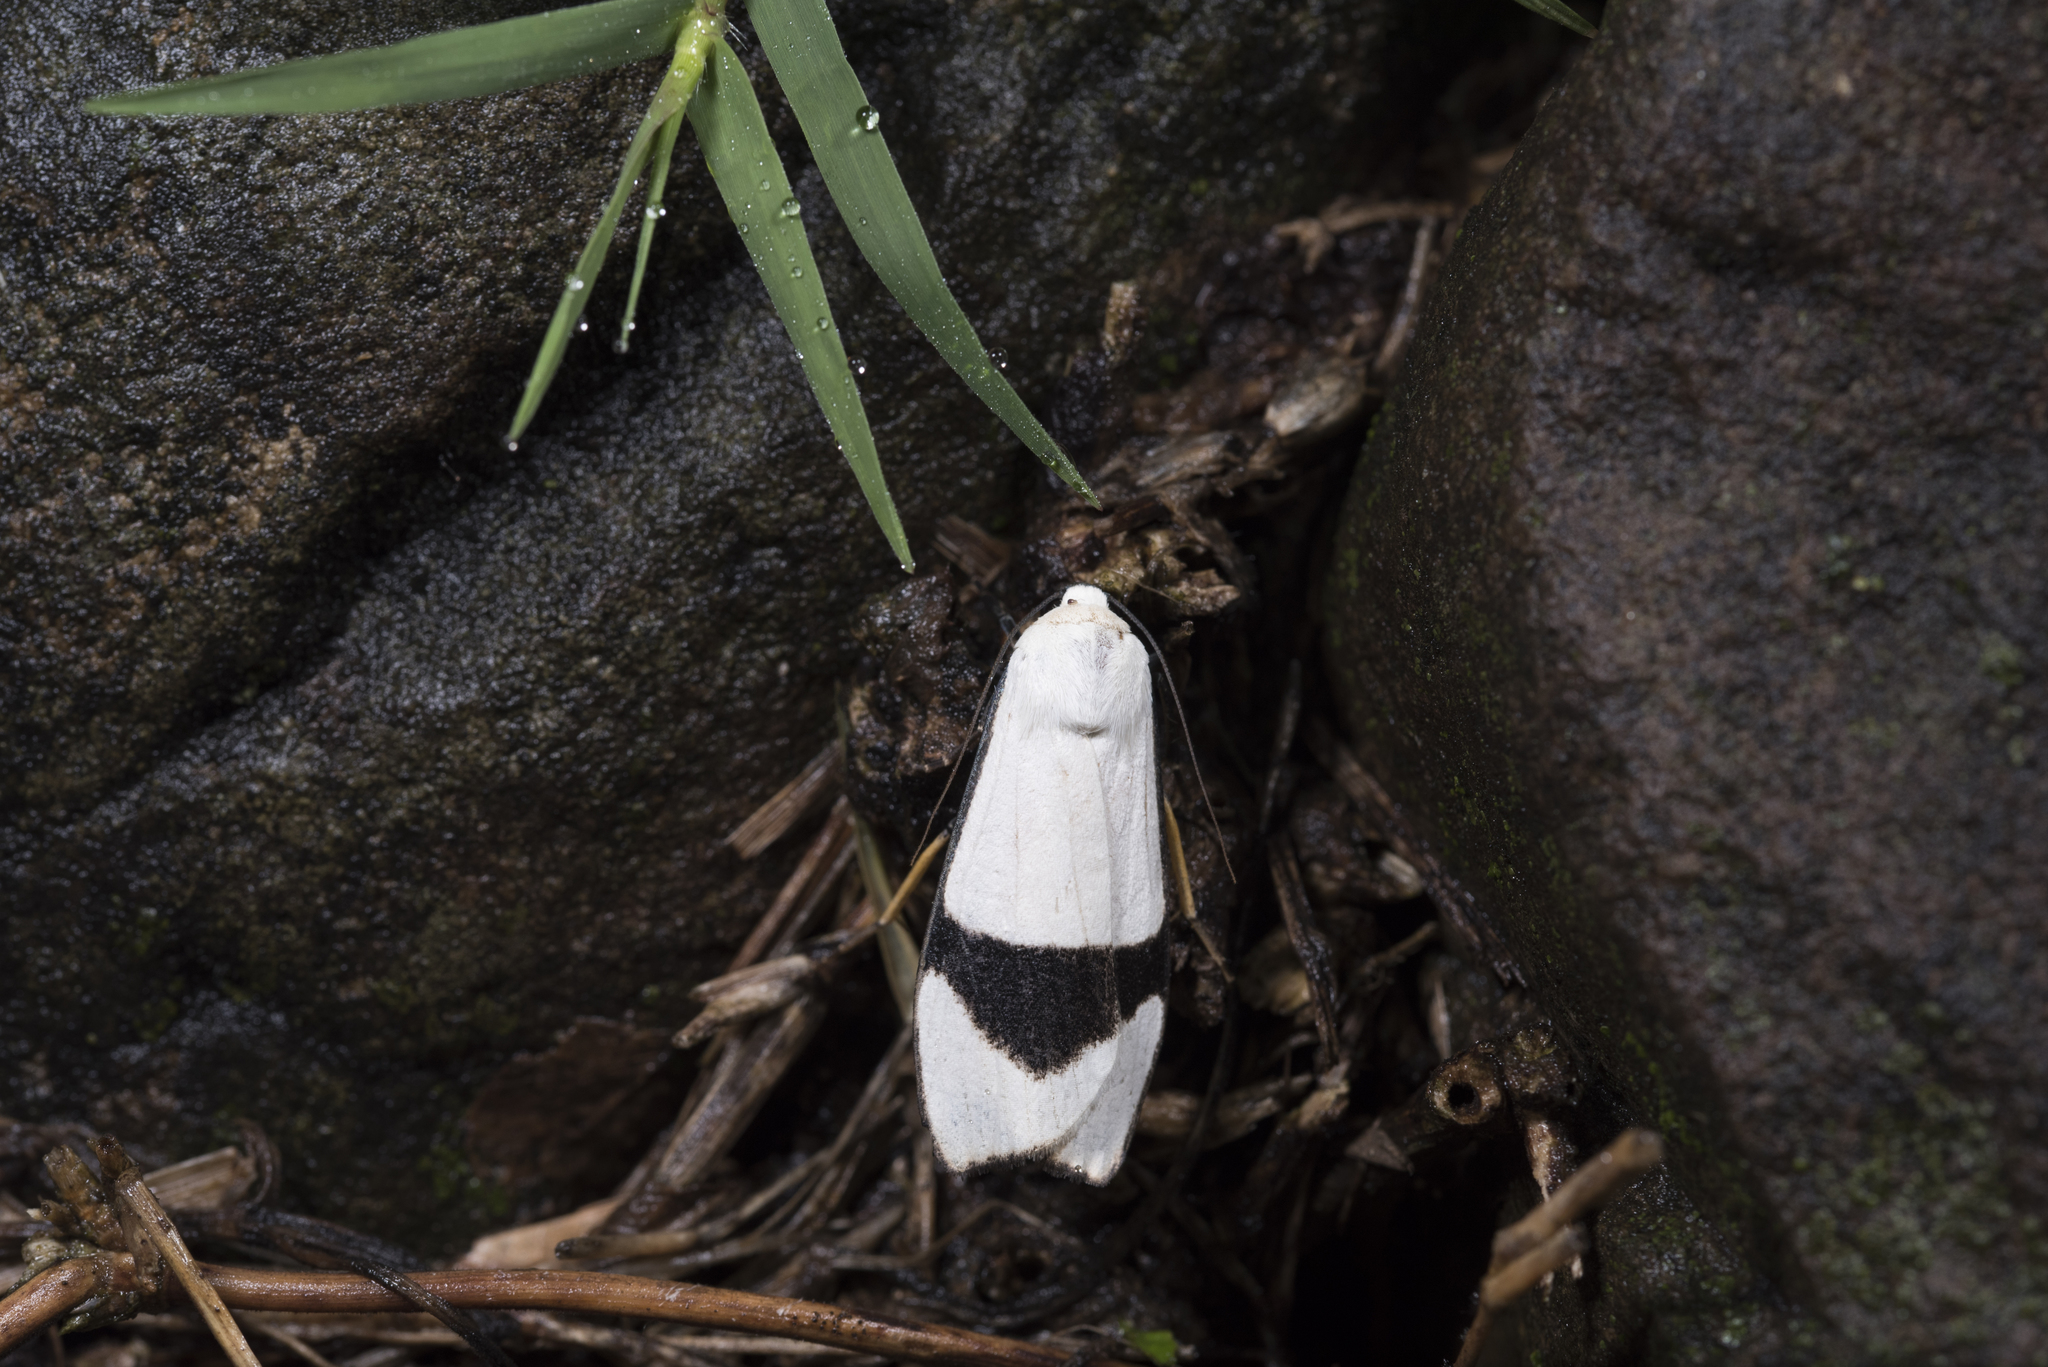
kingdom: Animalia
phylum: Arthropoda
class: Insecta
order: Lepidoptera
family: Erebidae
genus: Vamuna
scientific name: Vamuna alboluteola
